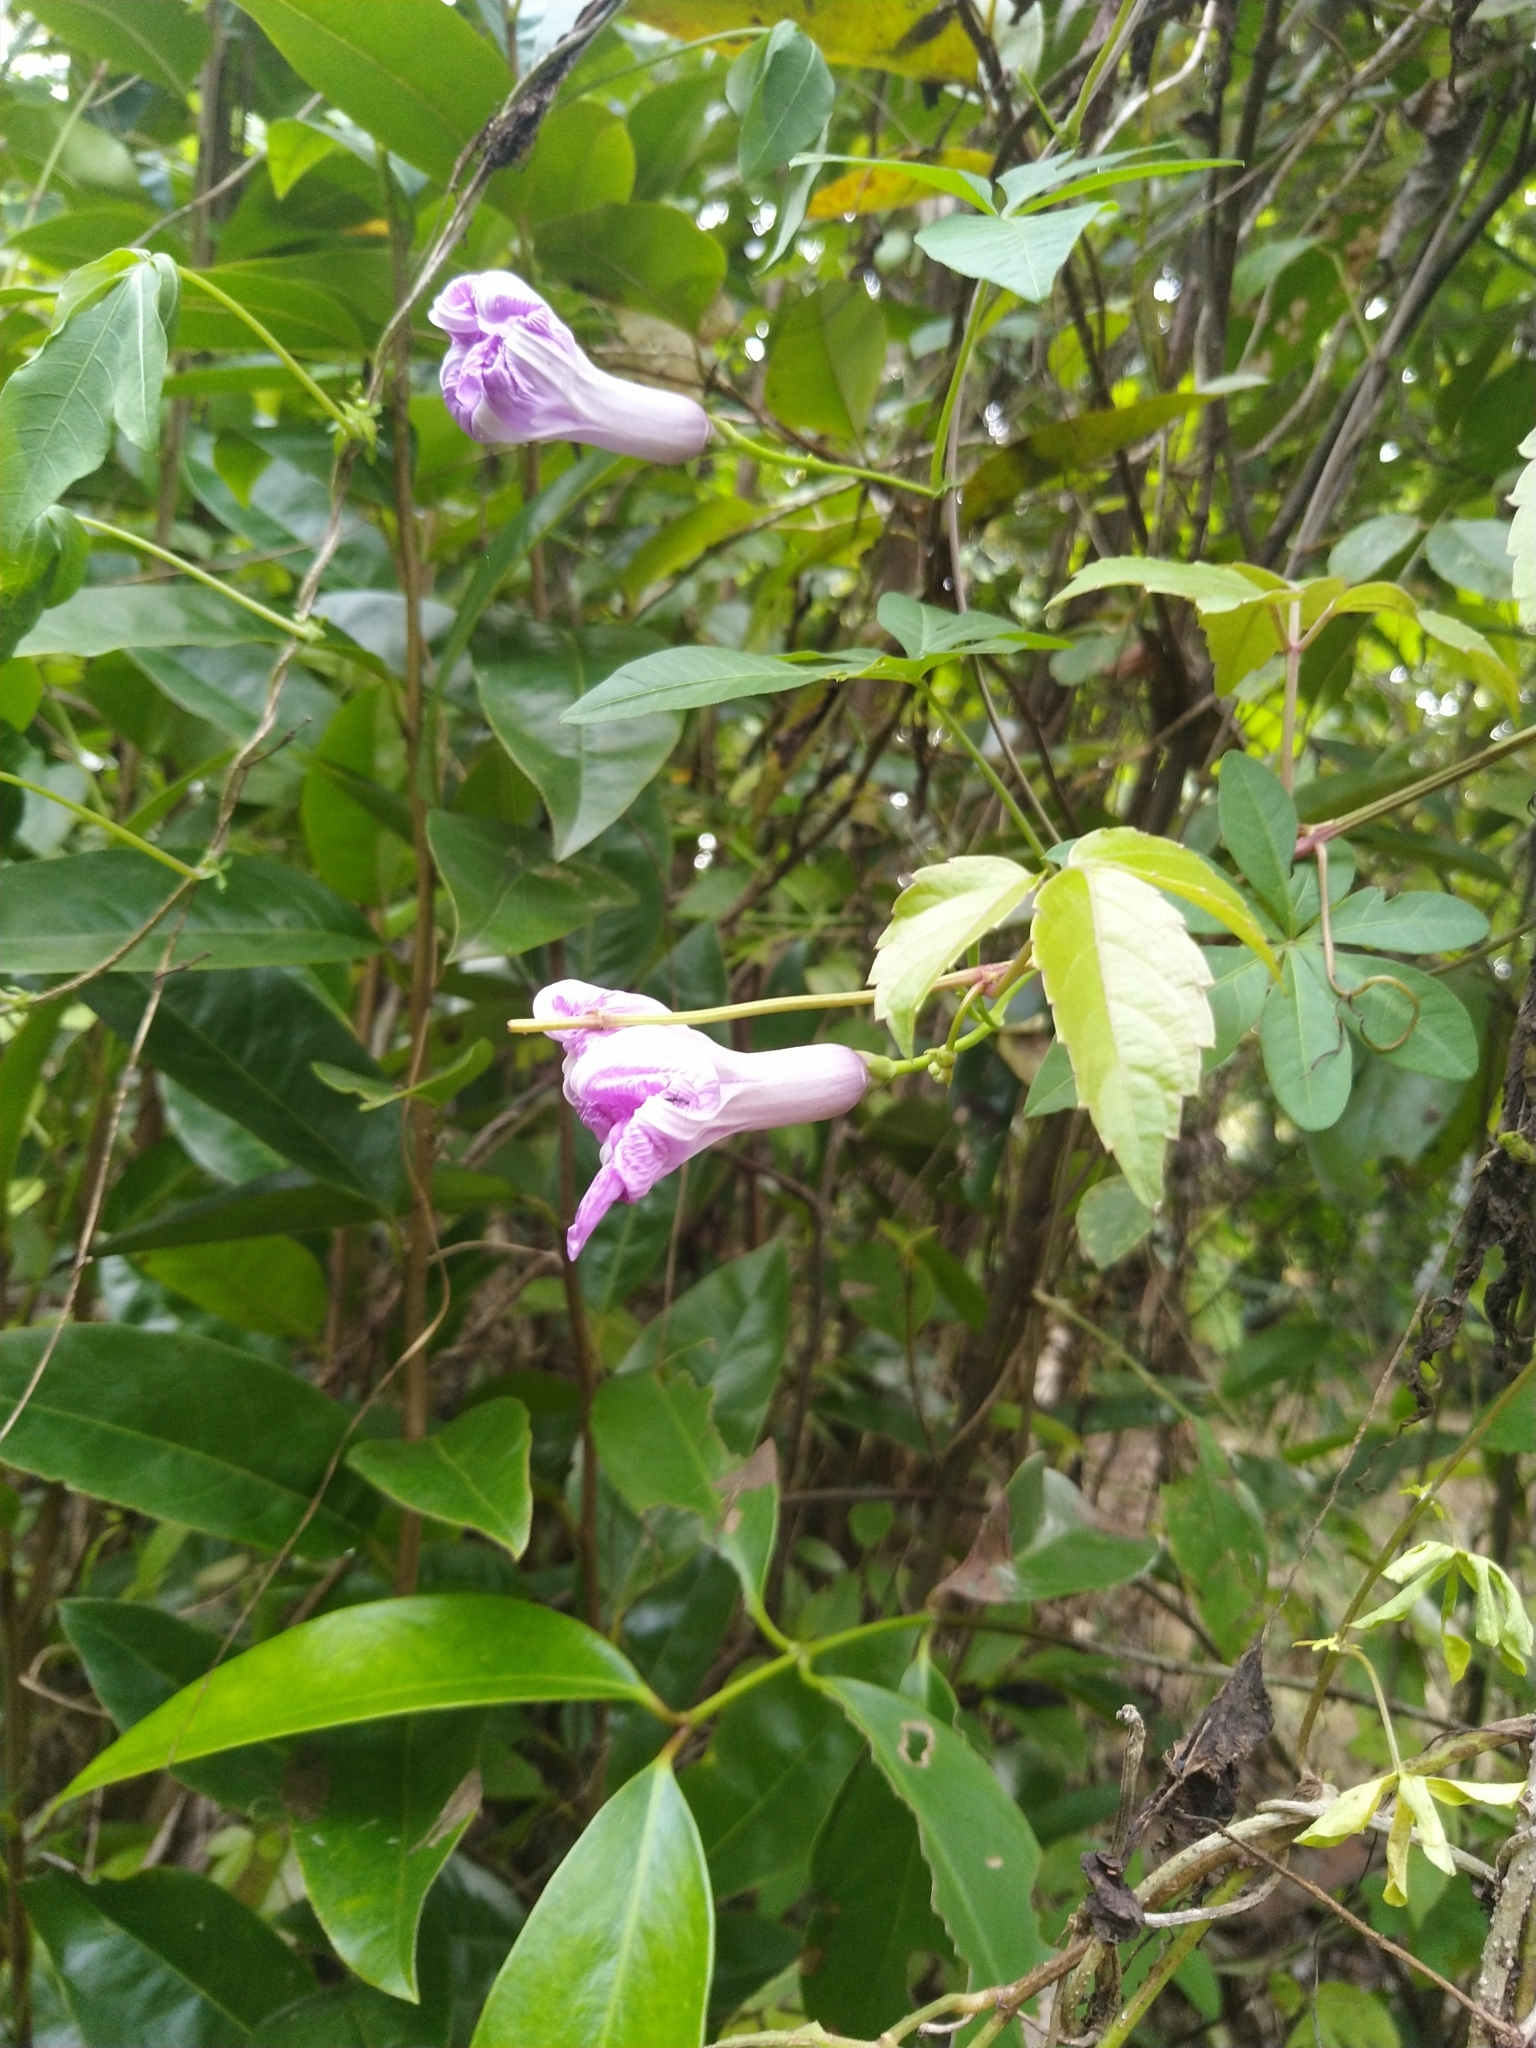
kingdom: Plantae
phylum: Tracheophyta
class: Magnoliopsida
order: Solanales
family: Convolvulaceae
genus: Ipomoea
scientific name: Ipomoea cairica
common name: Mile a minute vine
